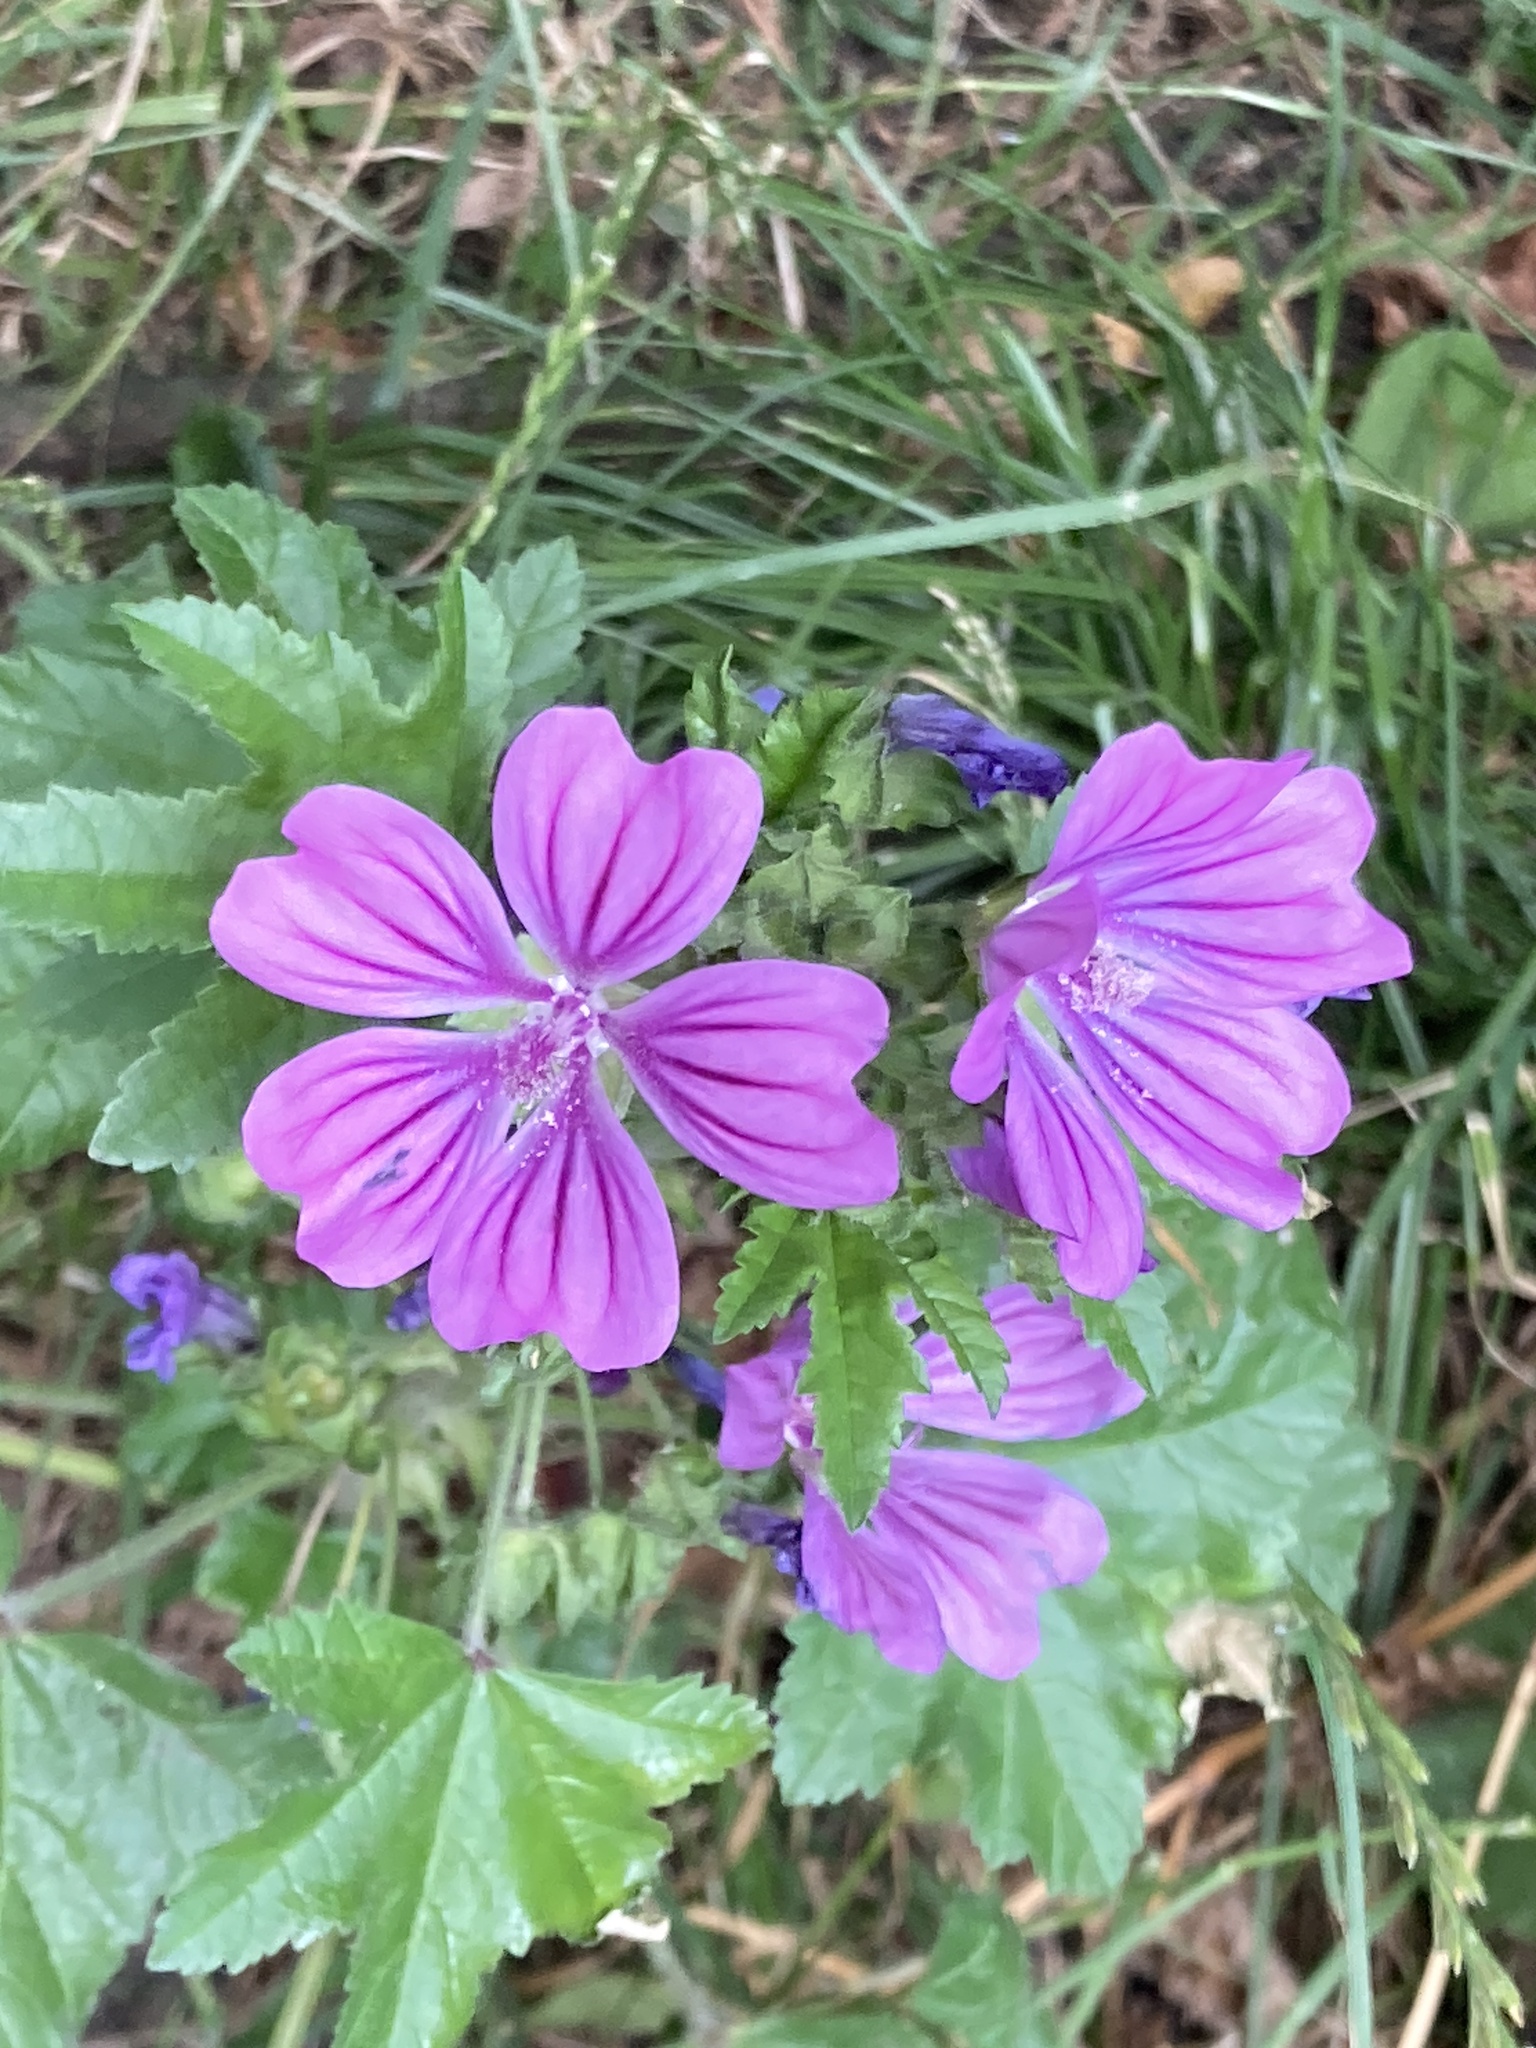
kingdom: Plantae
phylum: Tracheophyta
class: Magnoliopsida
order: Malvales
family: Malvaceae
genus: Malva
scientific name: Malva sylvestris
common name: Common mallow
